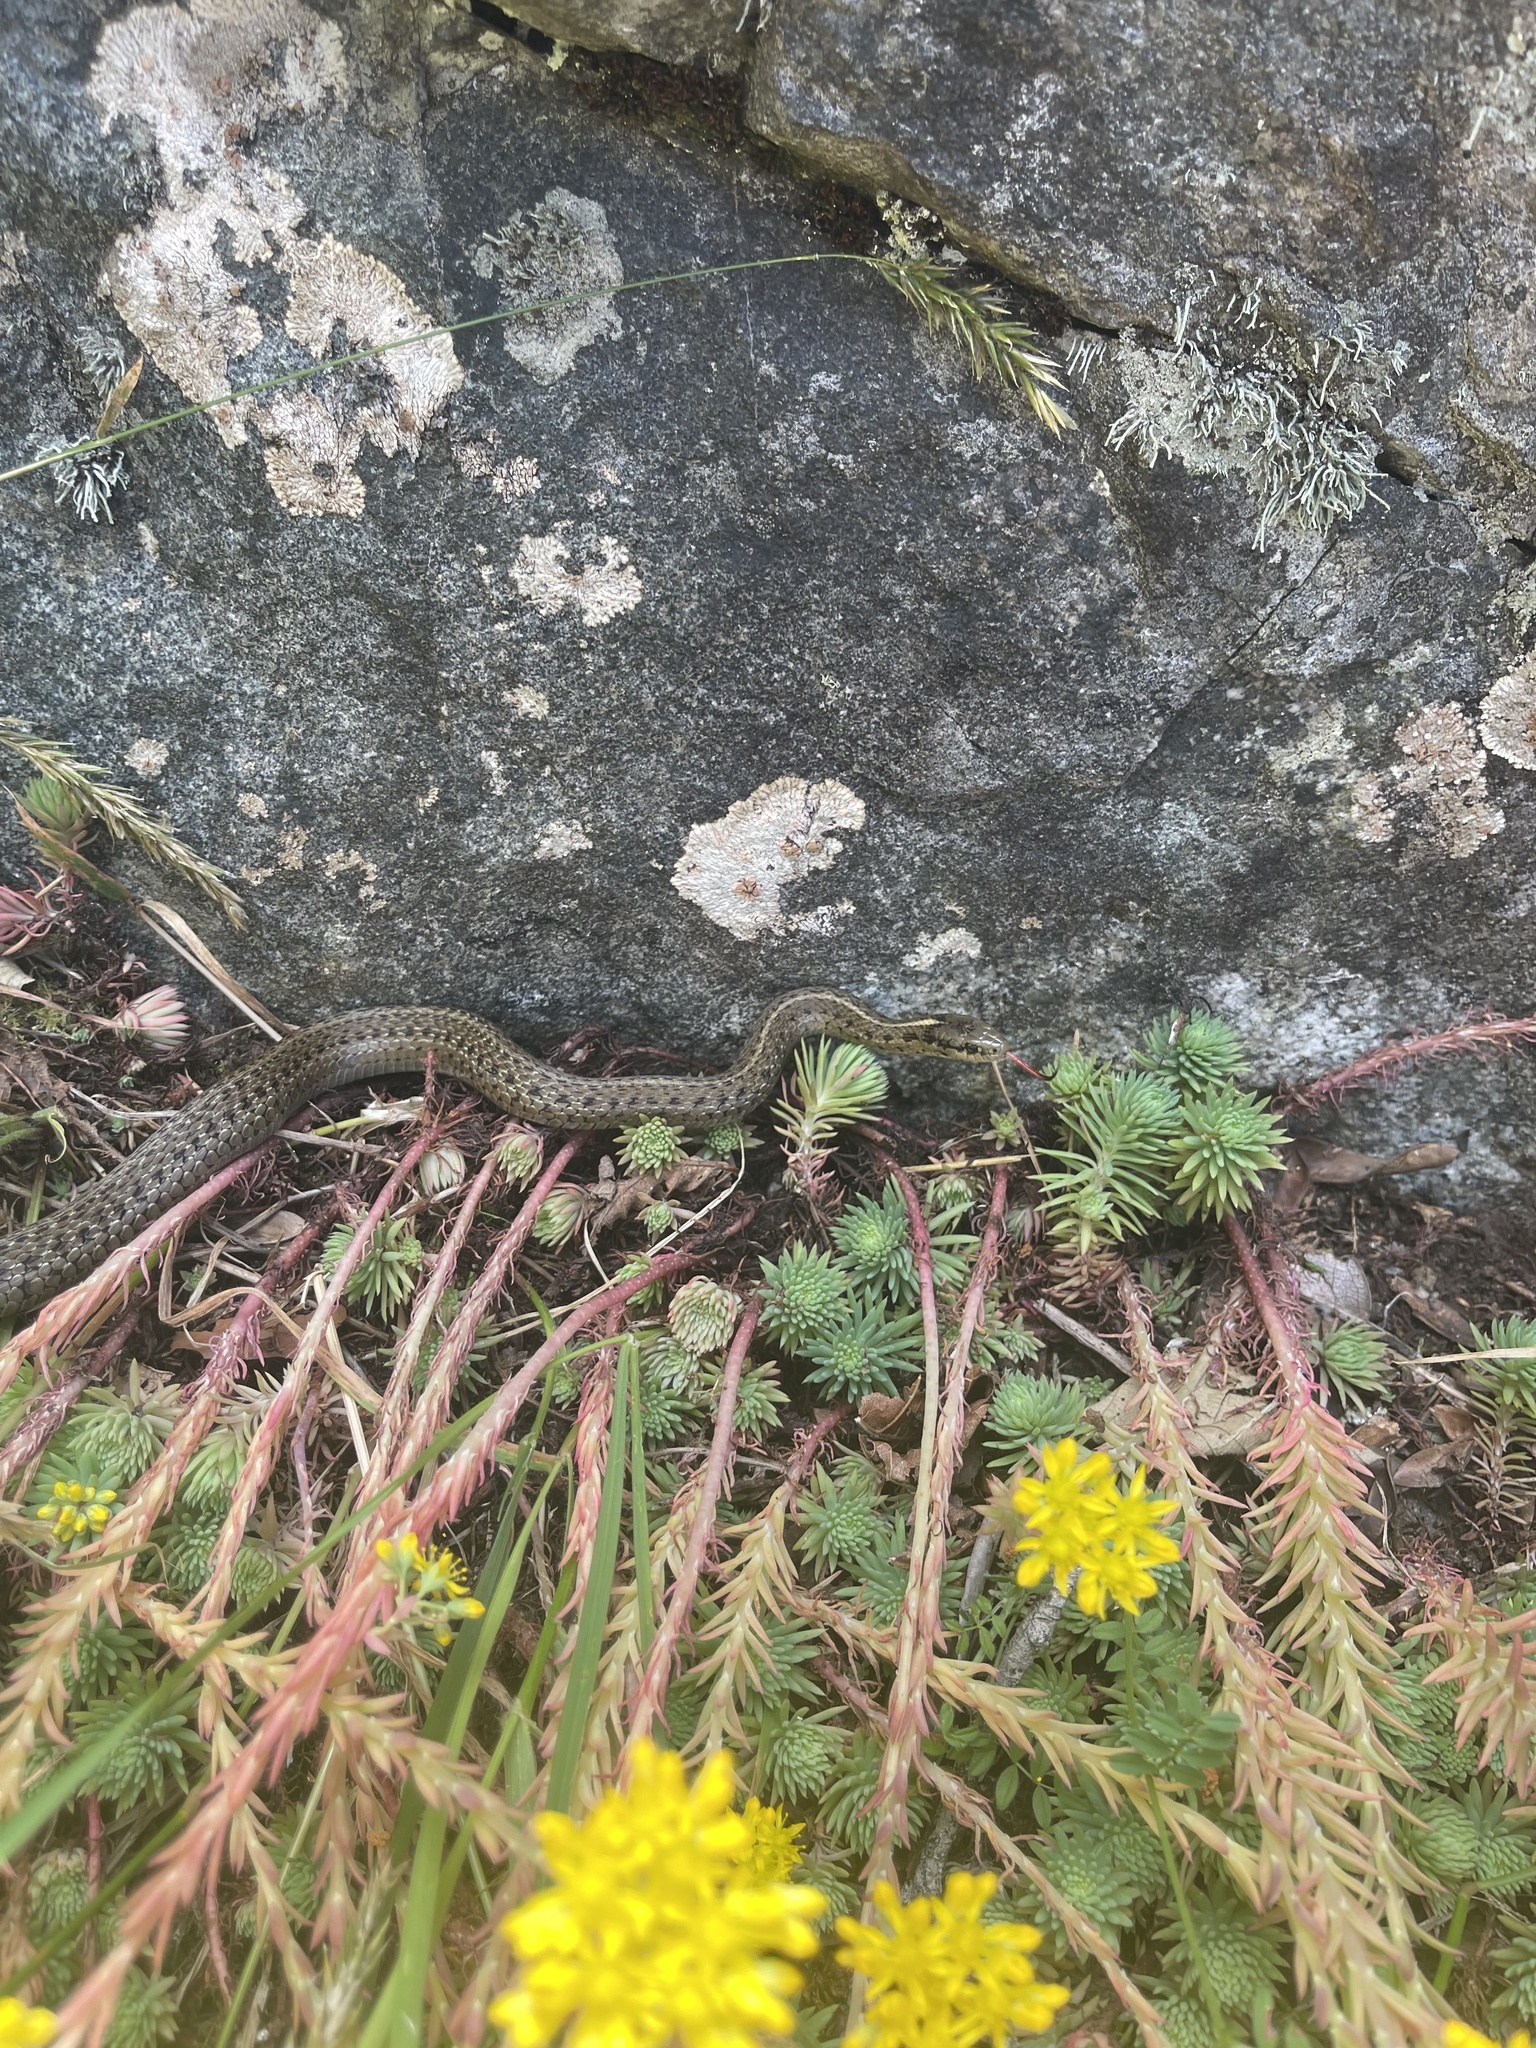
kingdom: Animalia
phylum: Chordata
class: Squamata
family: Colubridae
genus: Thamnophis
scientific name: Thamnophis ordinoides
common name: Northwestern garter snake
